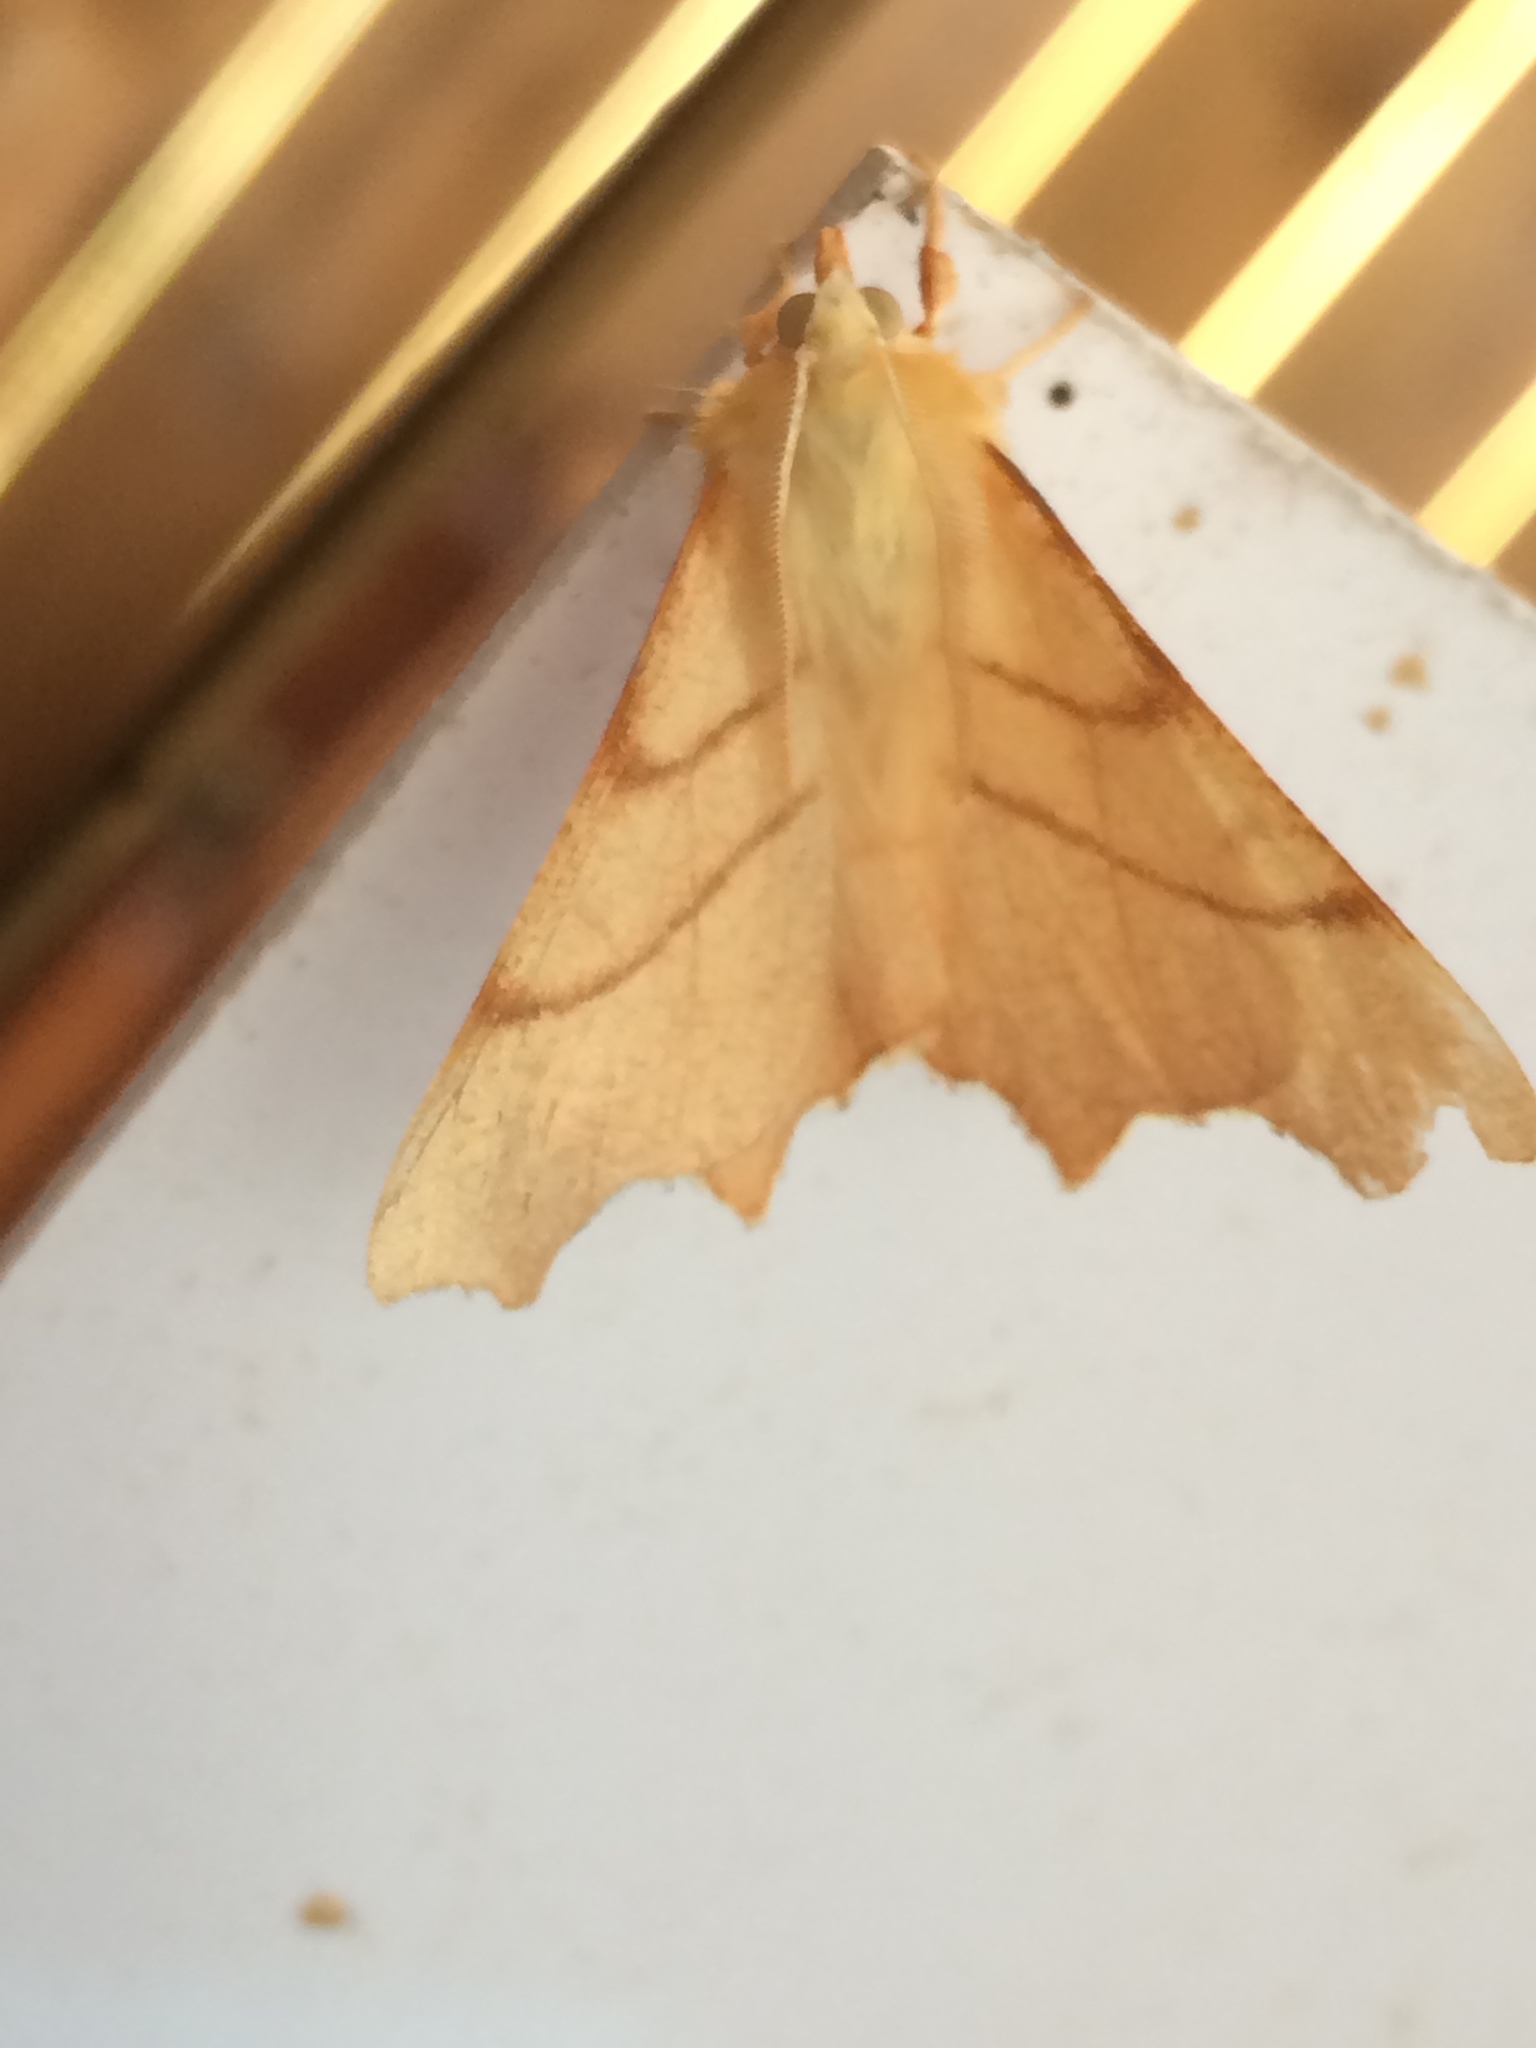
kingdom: Animalia
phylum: Arthropoda
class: Insecta
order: Lepidoptera
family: Geometridae
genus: Ennomos
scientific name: Ennomos erosaria
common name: September thorn
